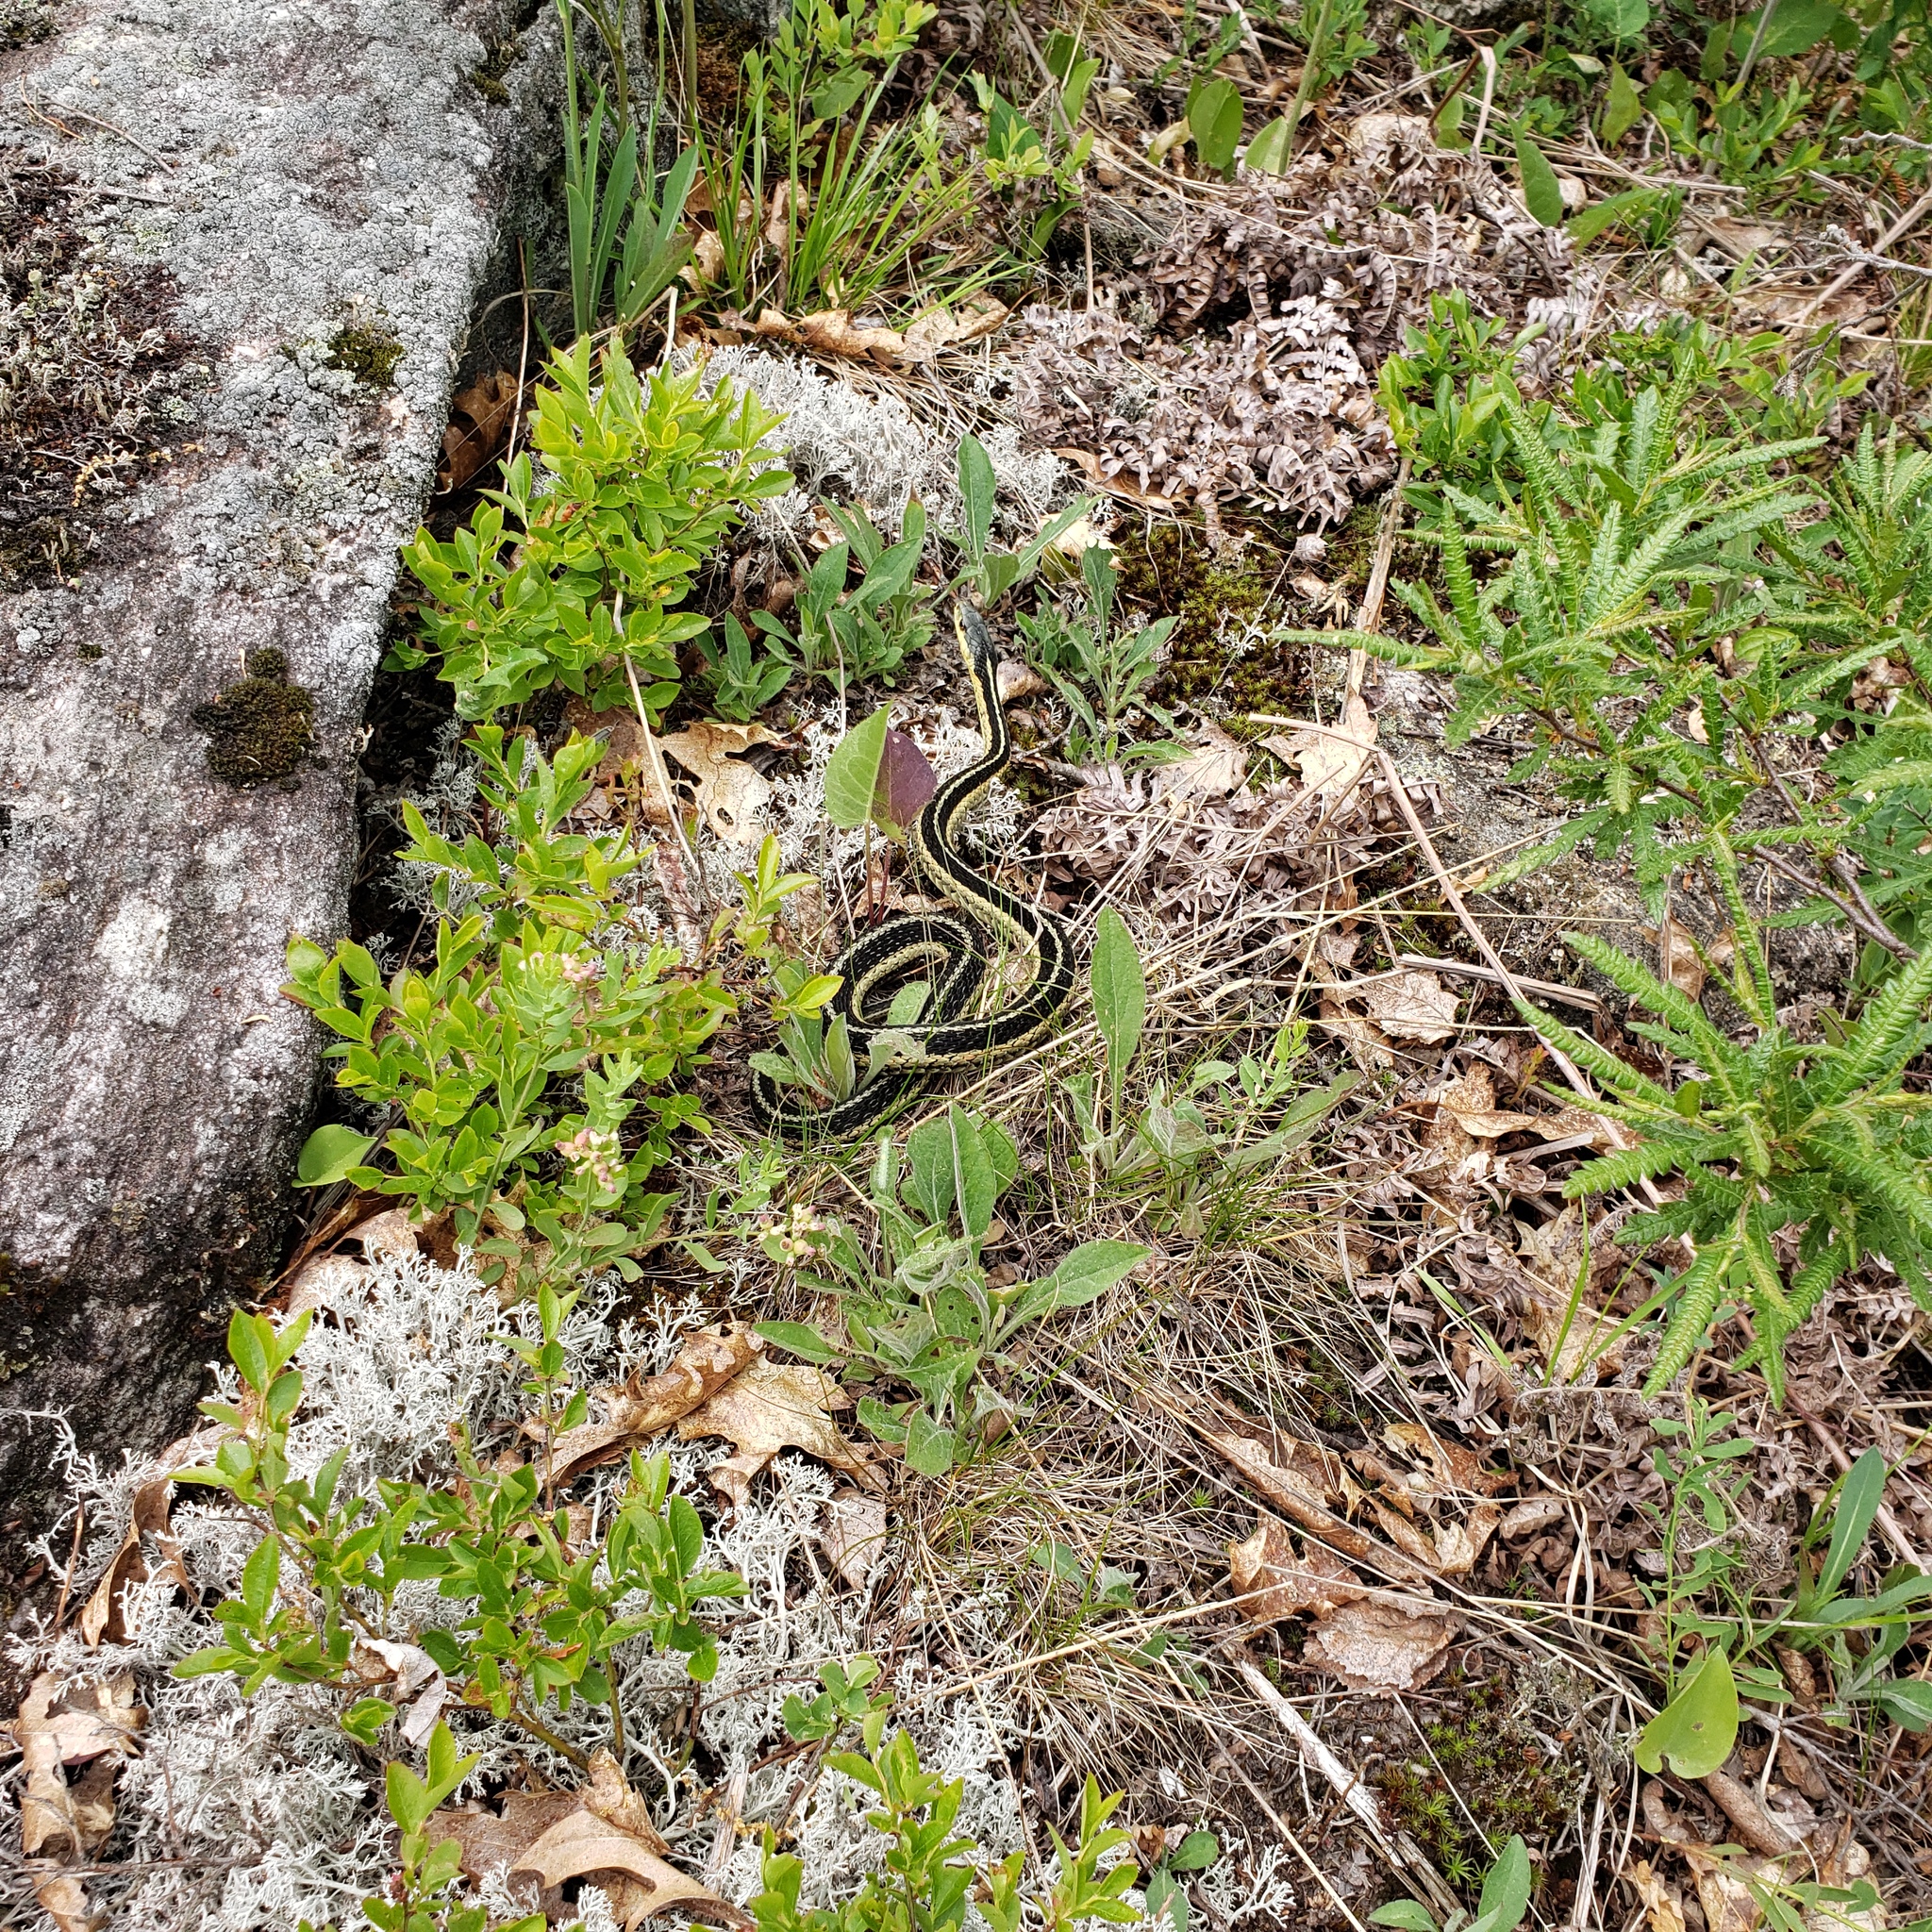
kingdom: Animalia
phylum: Chordata
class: Squamata
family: Colubridae
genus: Thamnophis
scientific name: Thamnophis sirtalis
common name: Common garter snake
